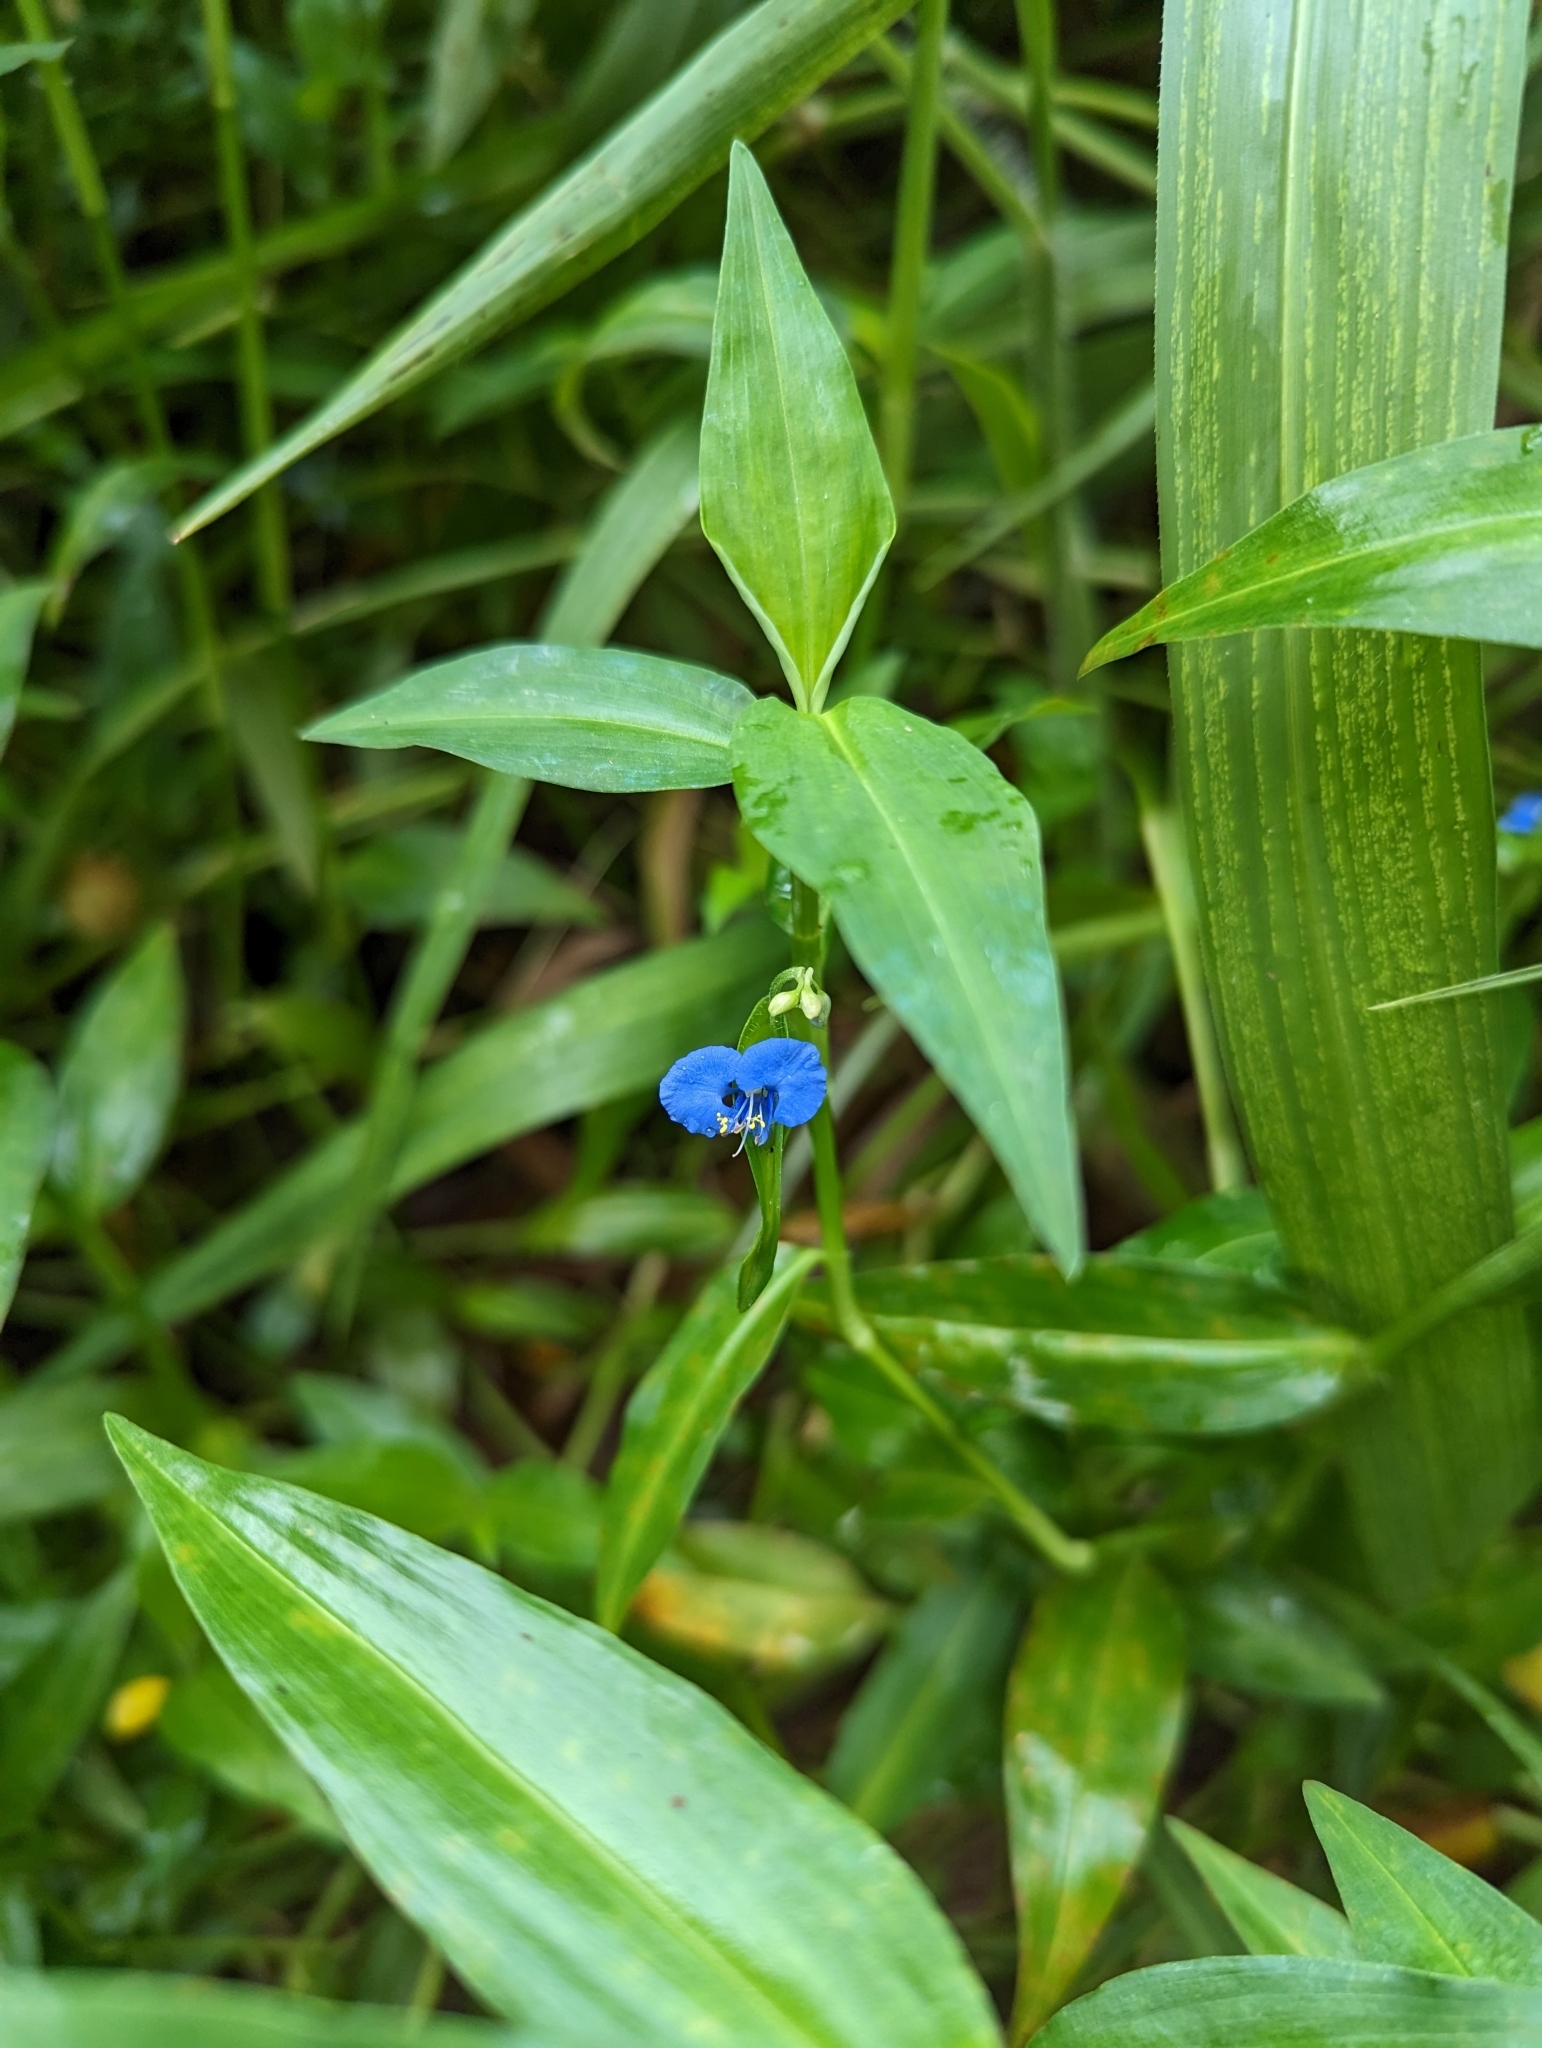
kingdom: Plantae
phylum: Tracheophyta
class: Liliopsida
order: Commelinales
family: Commelinaceae
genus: Commelina
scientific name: Commelina diffusa
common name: Climbing dayflower
